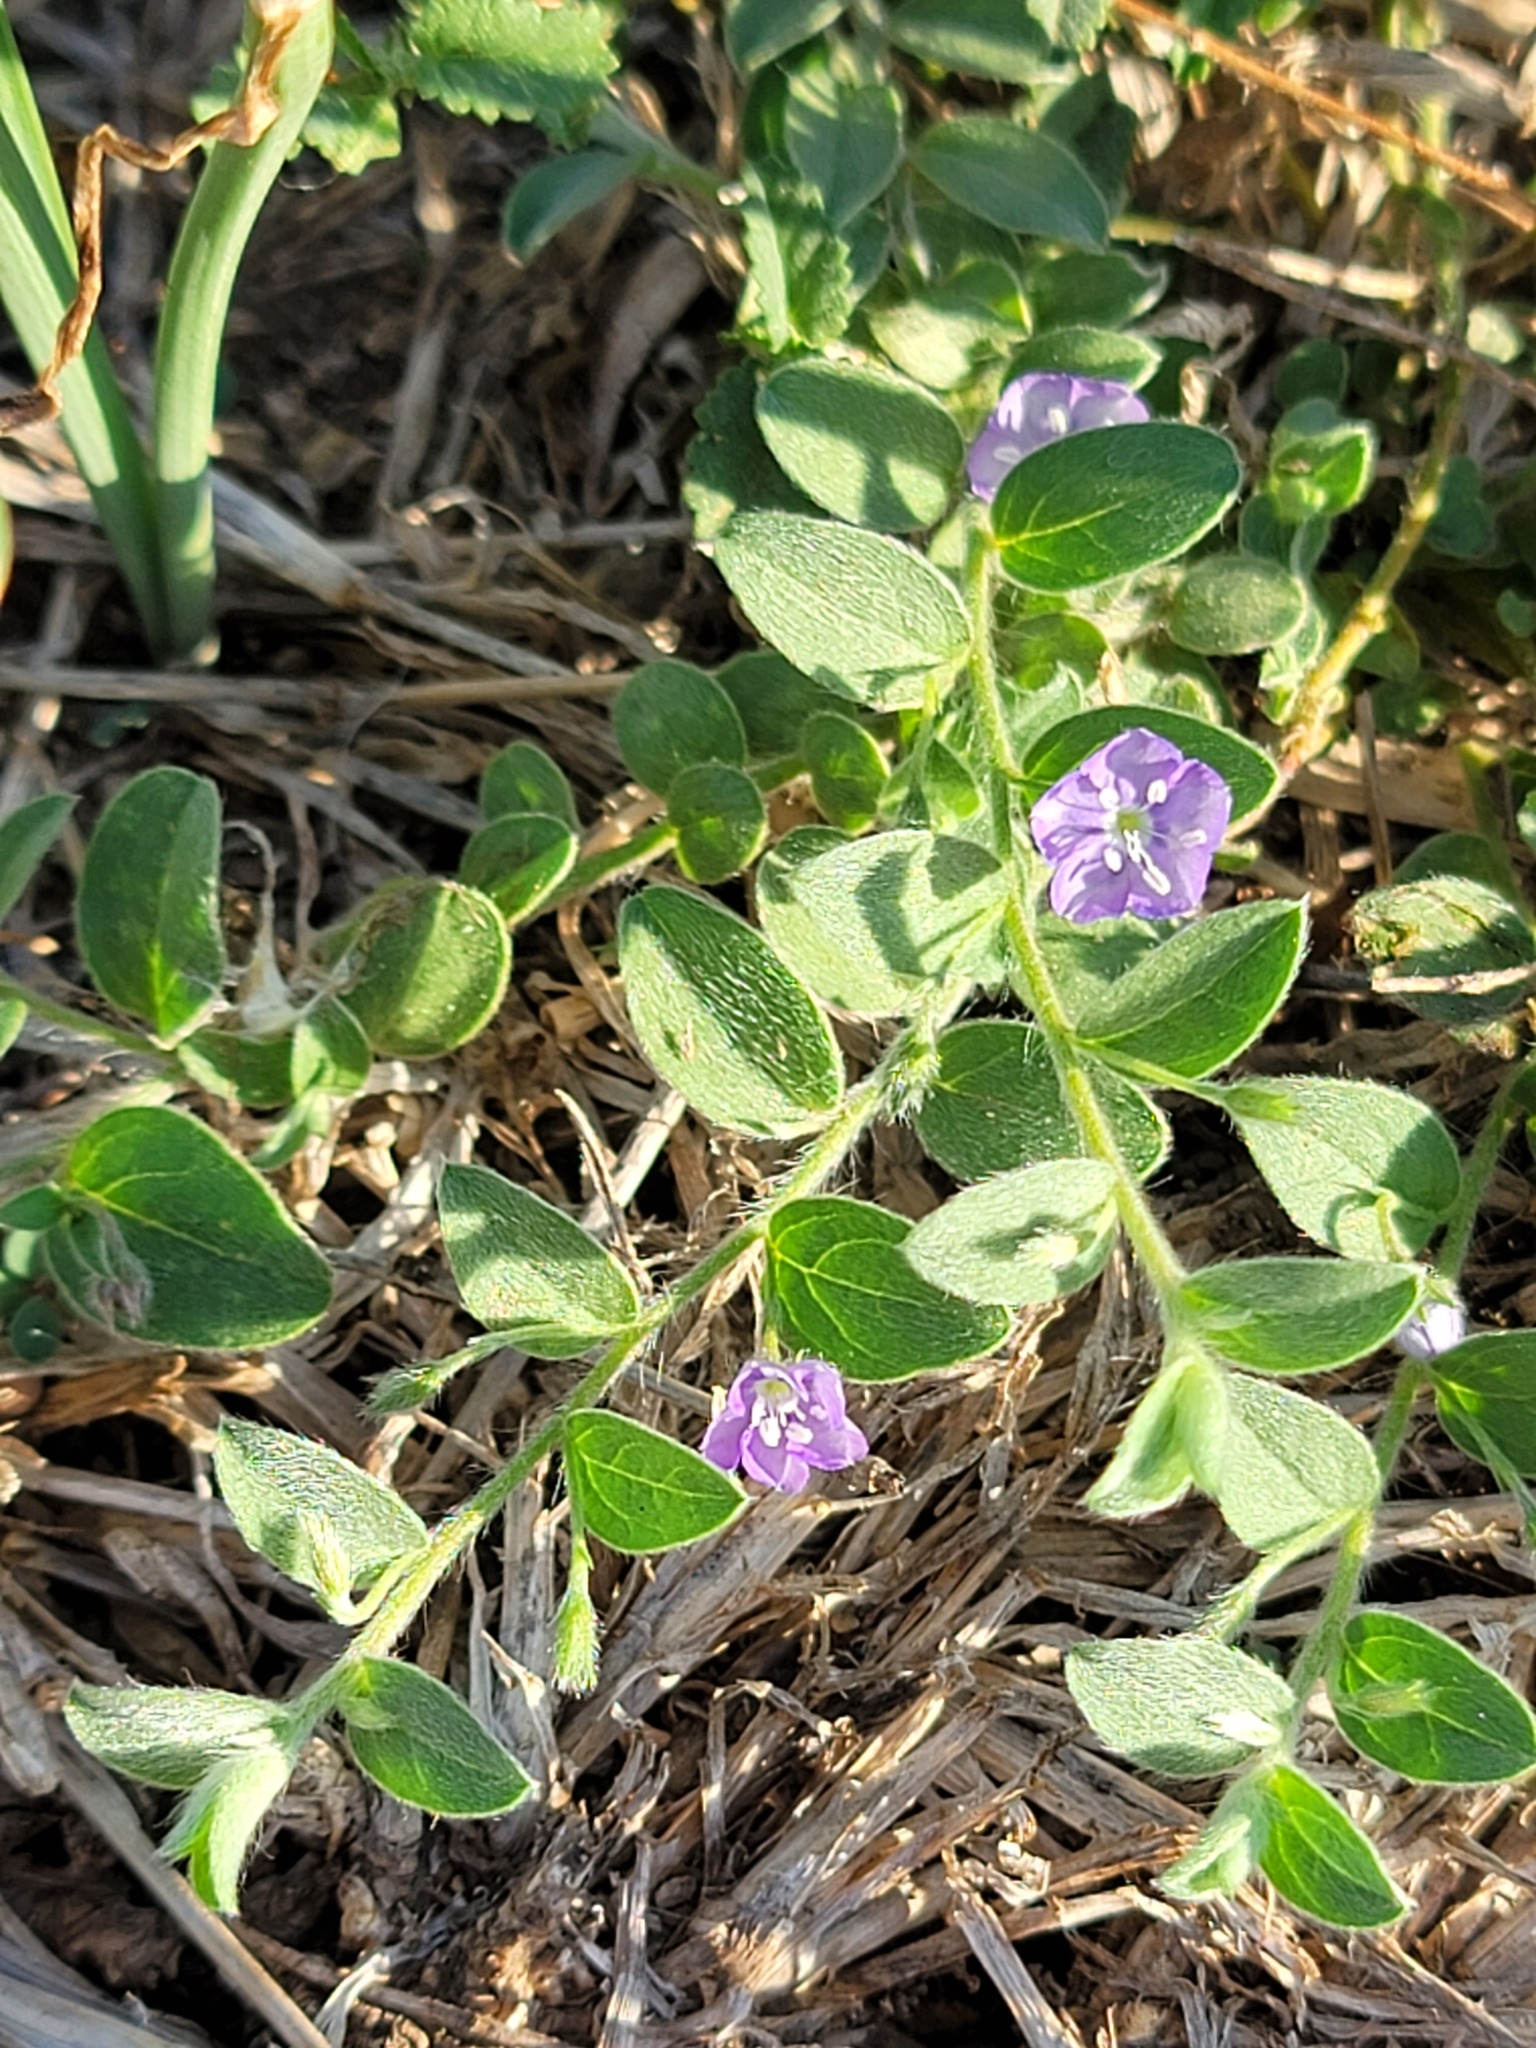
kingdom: Plantae
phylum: Tracheophyta
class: Magnoliopsida
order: Solanales
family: Convolvulaceae
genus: Evolvulus
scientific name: Evolvulus alsinoides
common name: Slender dwarf morning-glory
